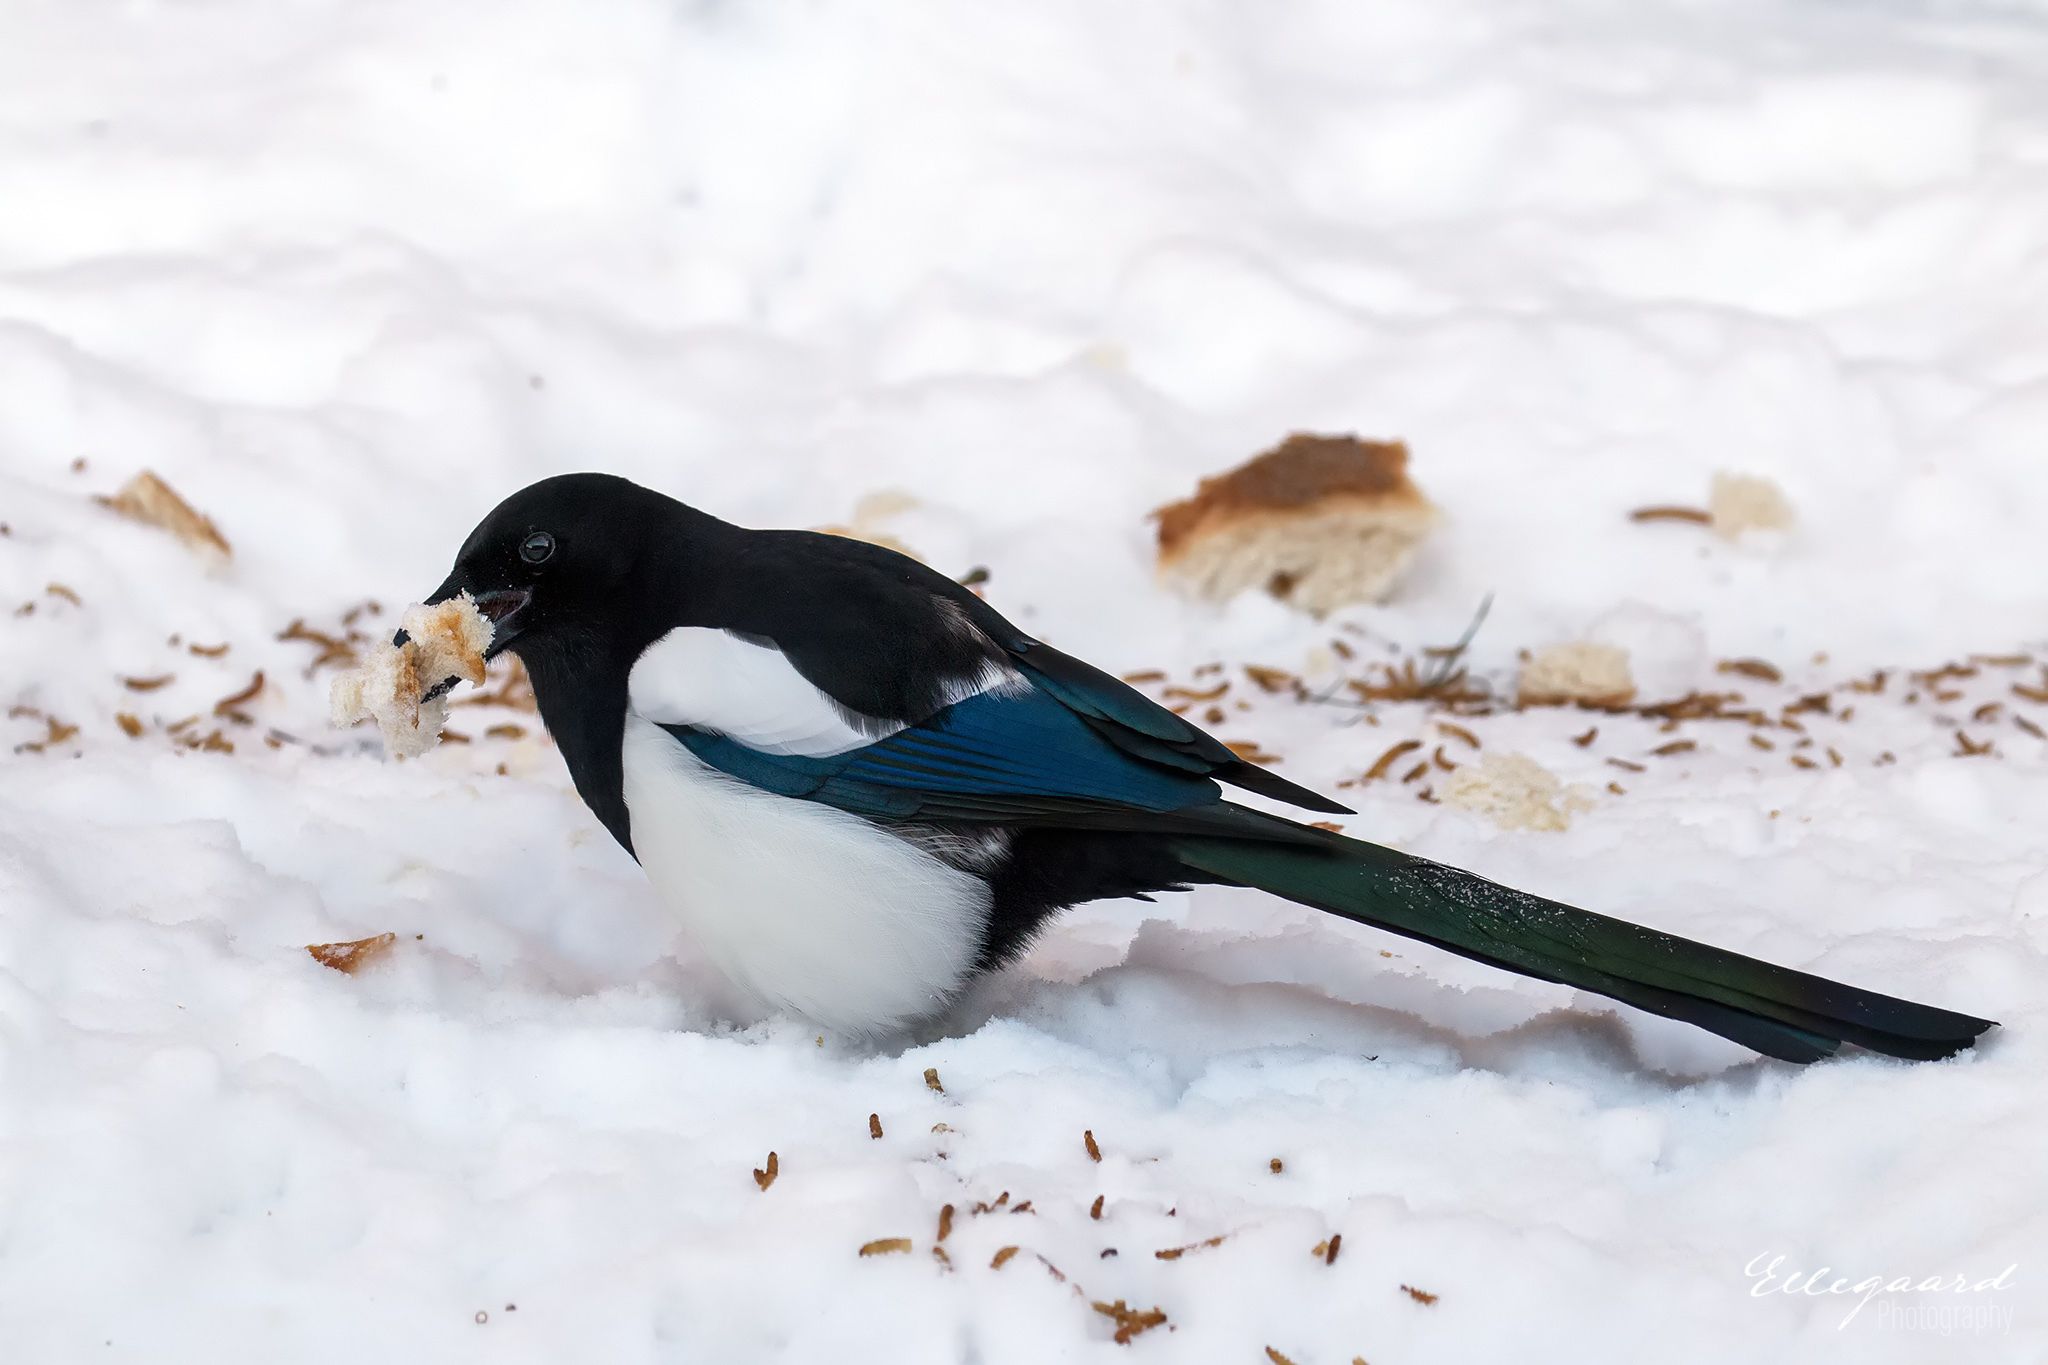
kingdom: Animalia
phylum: Chordata
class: Aves
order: Passeriformes
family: Corvidae
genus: Pica
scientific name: Pica pica
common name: Eurasian magpie
